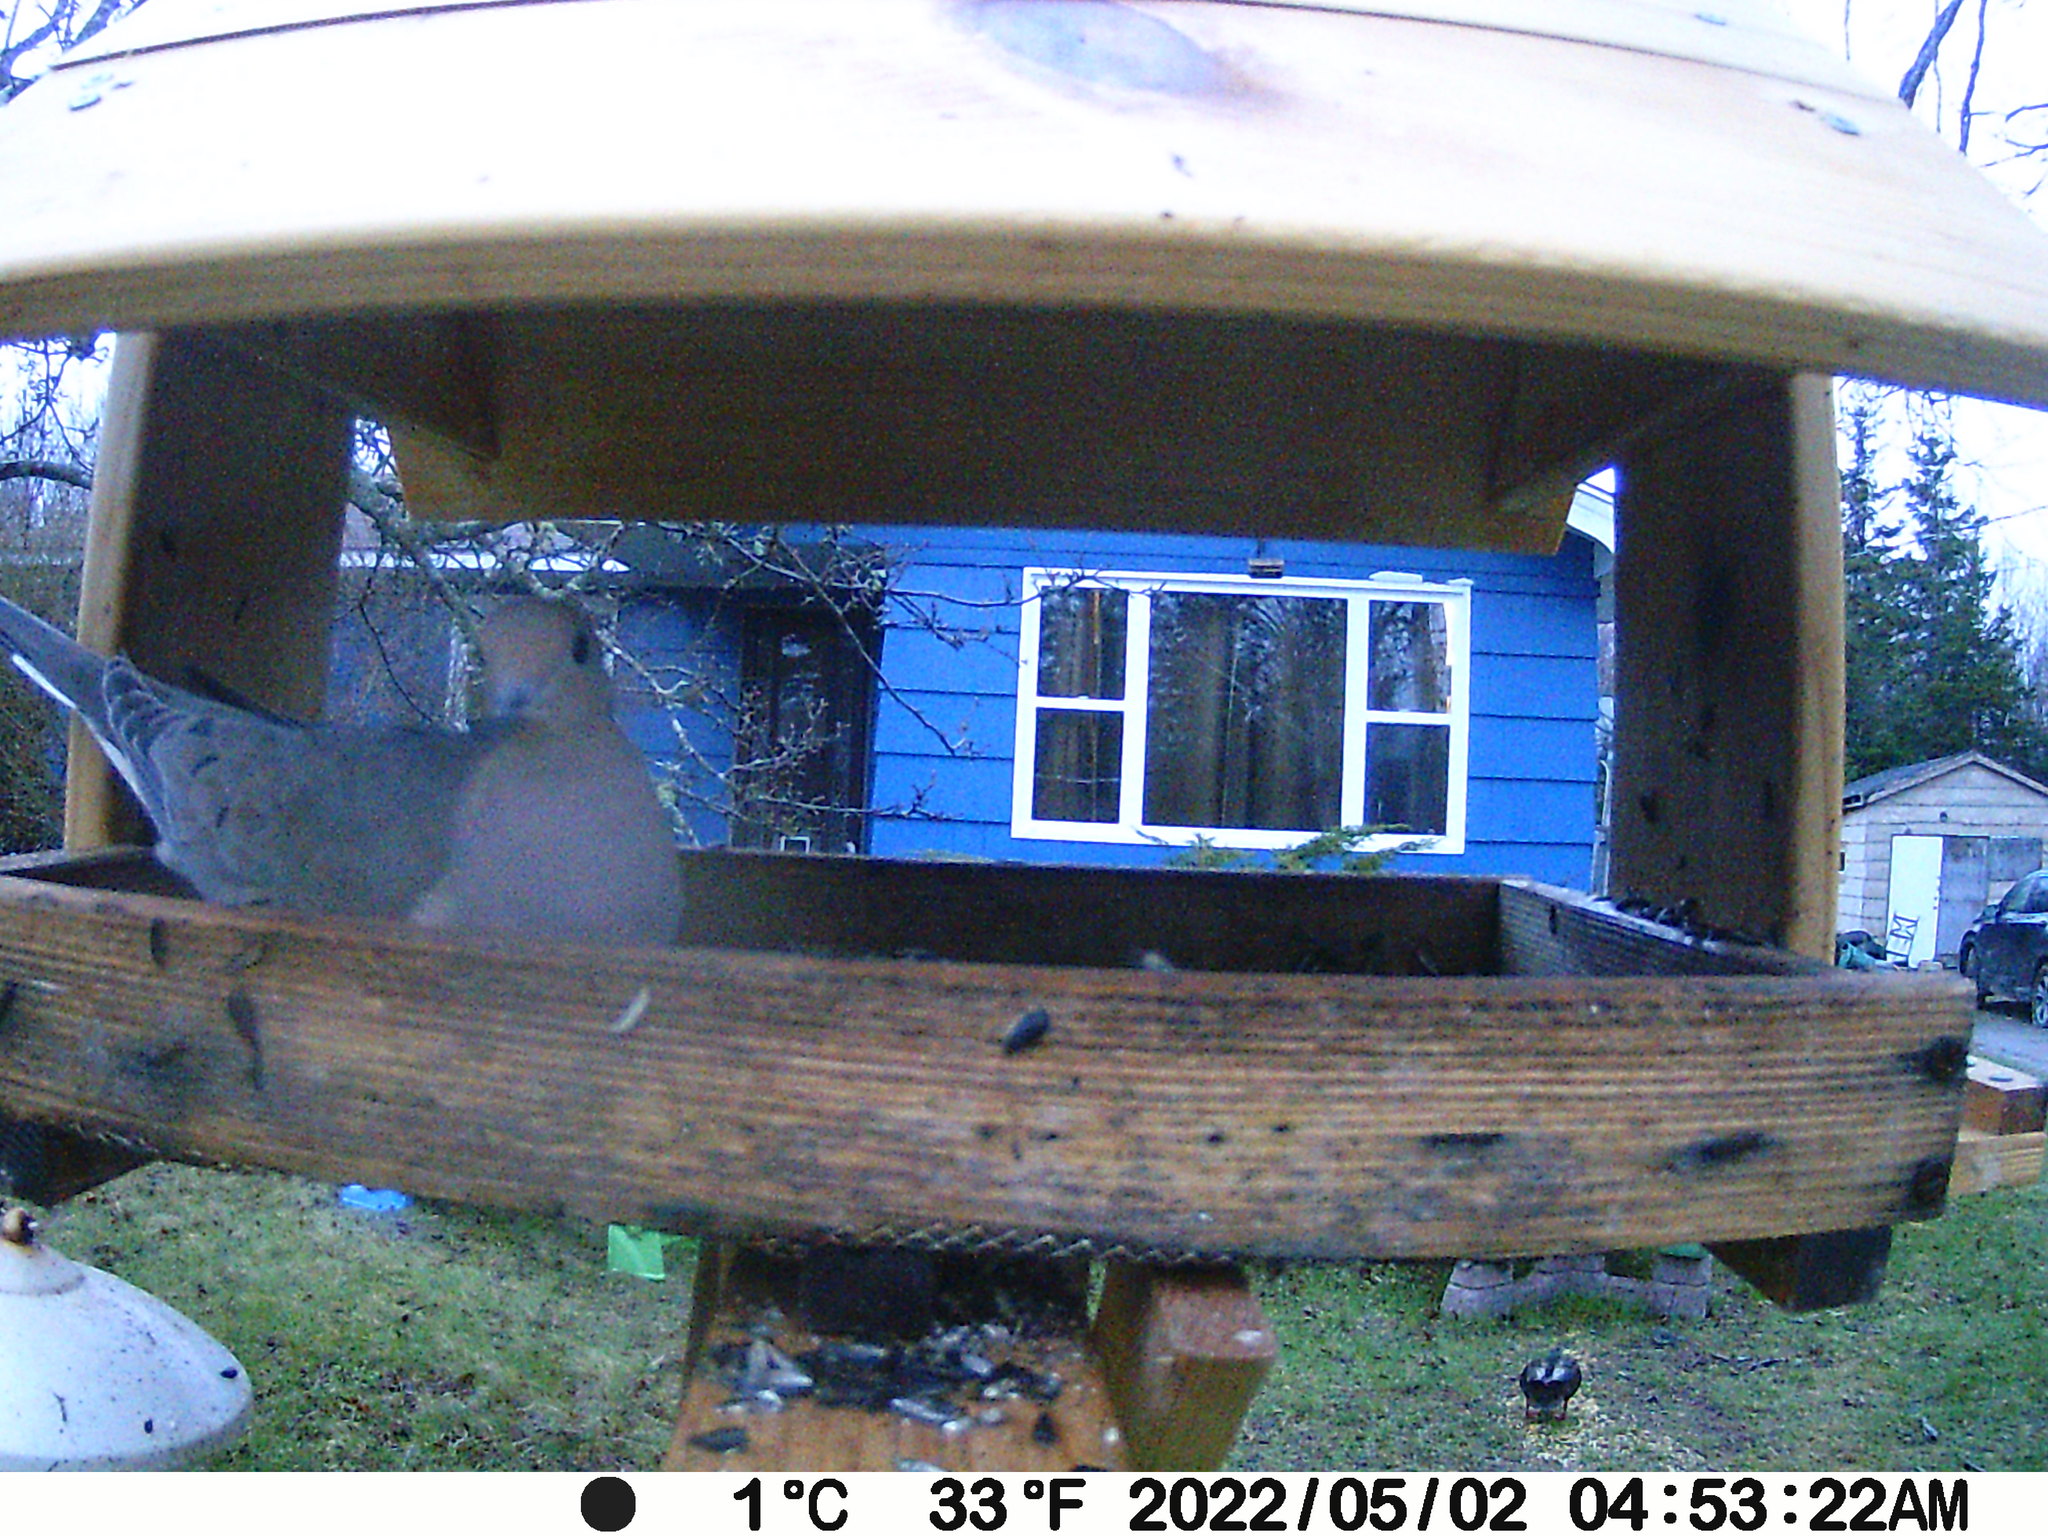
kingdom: Animalia
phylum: Chordata
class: Aves
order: Anseriformes
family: Anatidae
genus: Anas
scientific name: Anas rubripes
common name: American black duck
